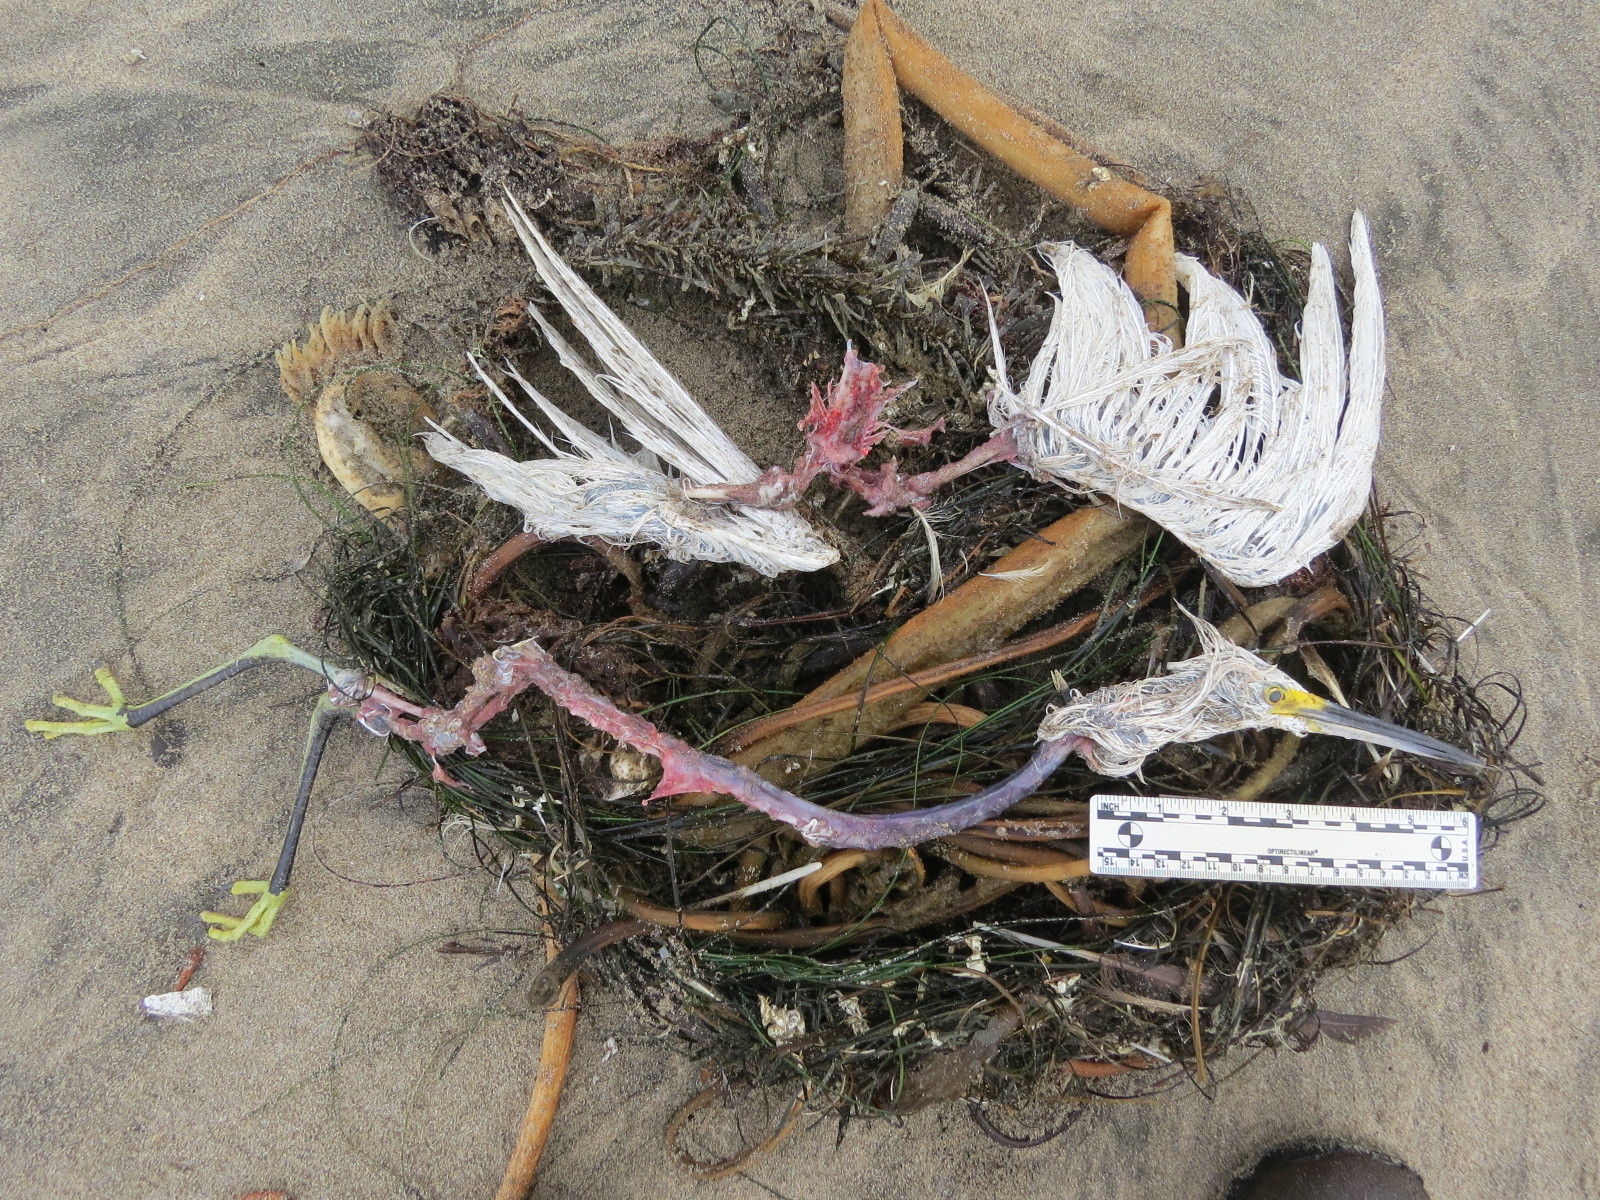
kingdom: Animalia
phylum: Chordata
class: Aves
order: Falconiformes
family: Falconidae
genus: Falco
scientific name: Falco peregrinus
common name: Peregrine falcon
